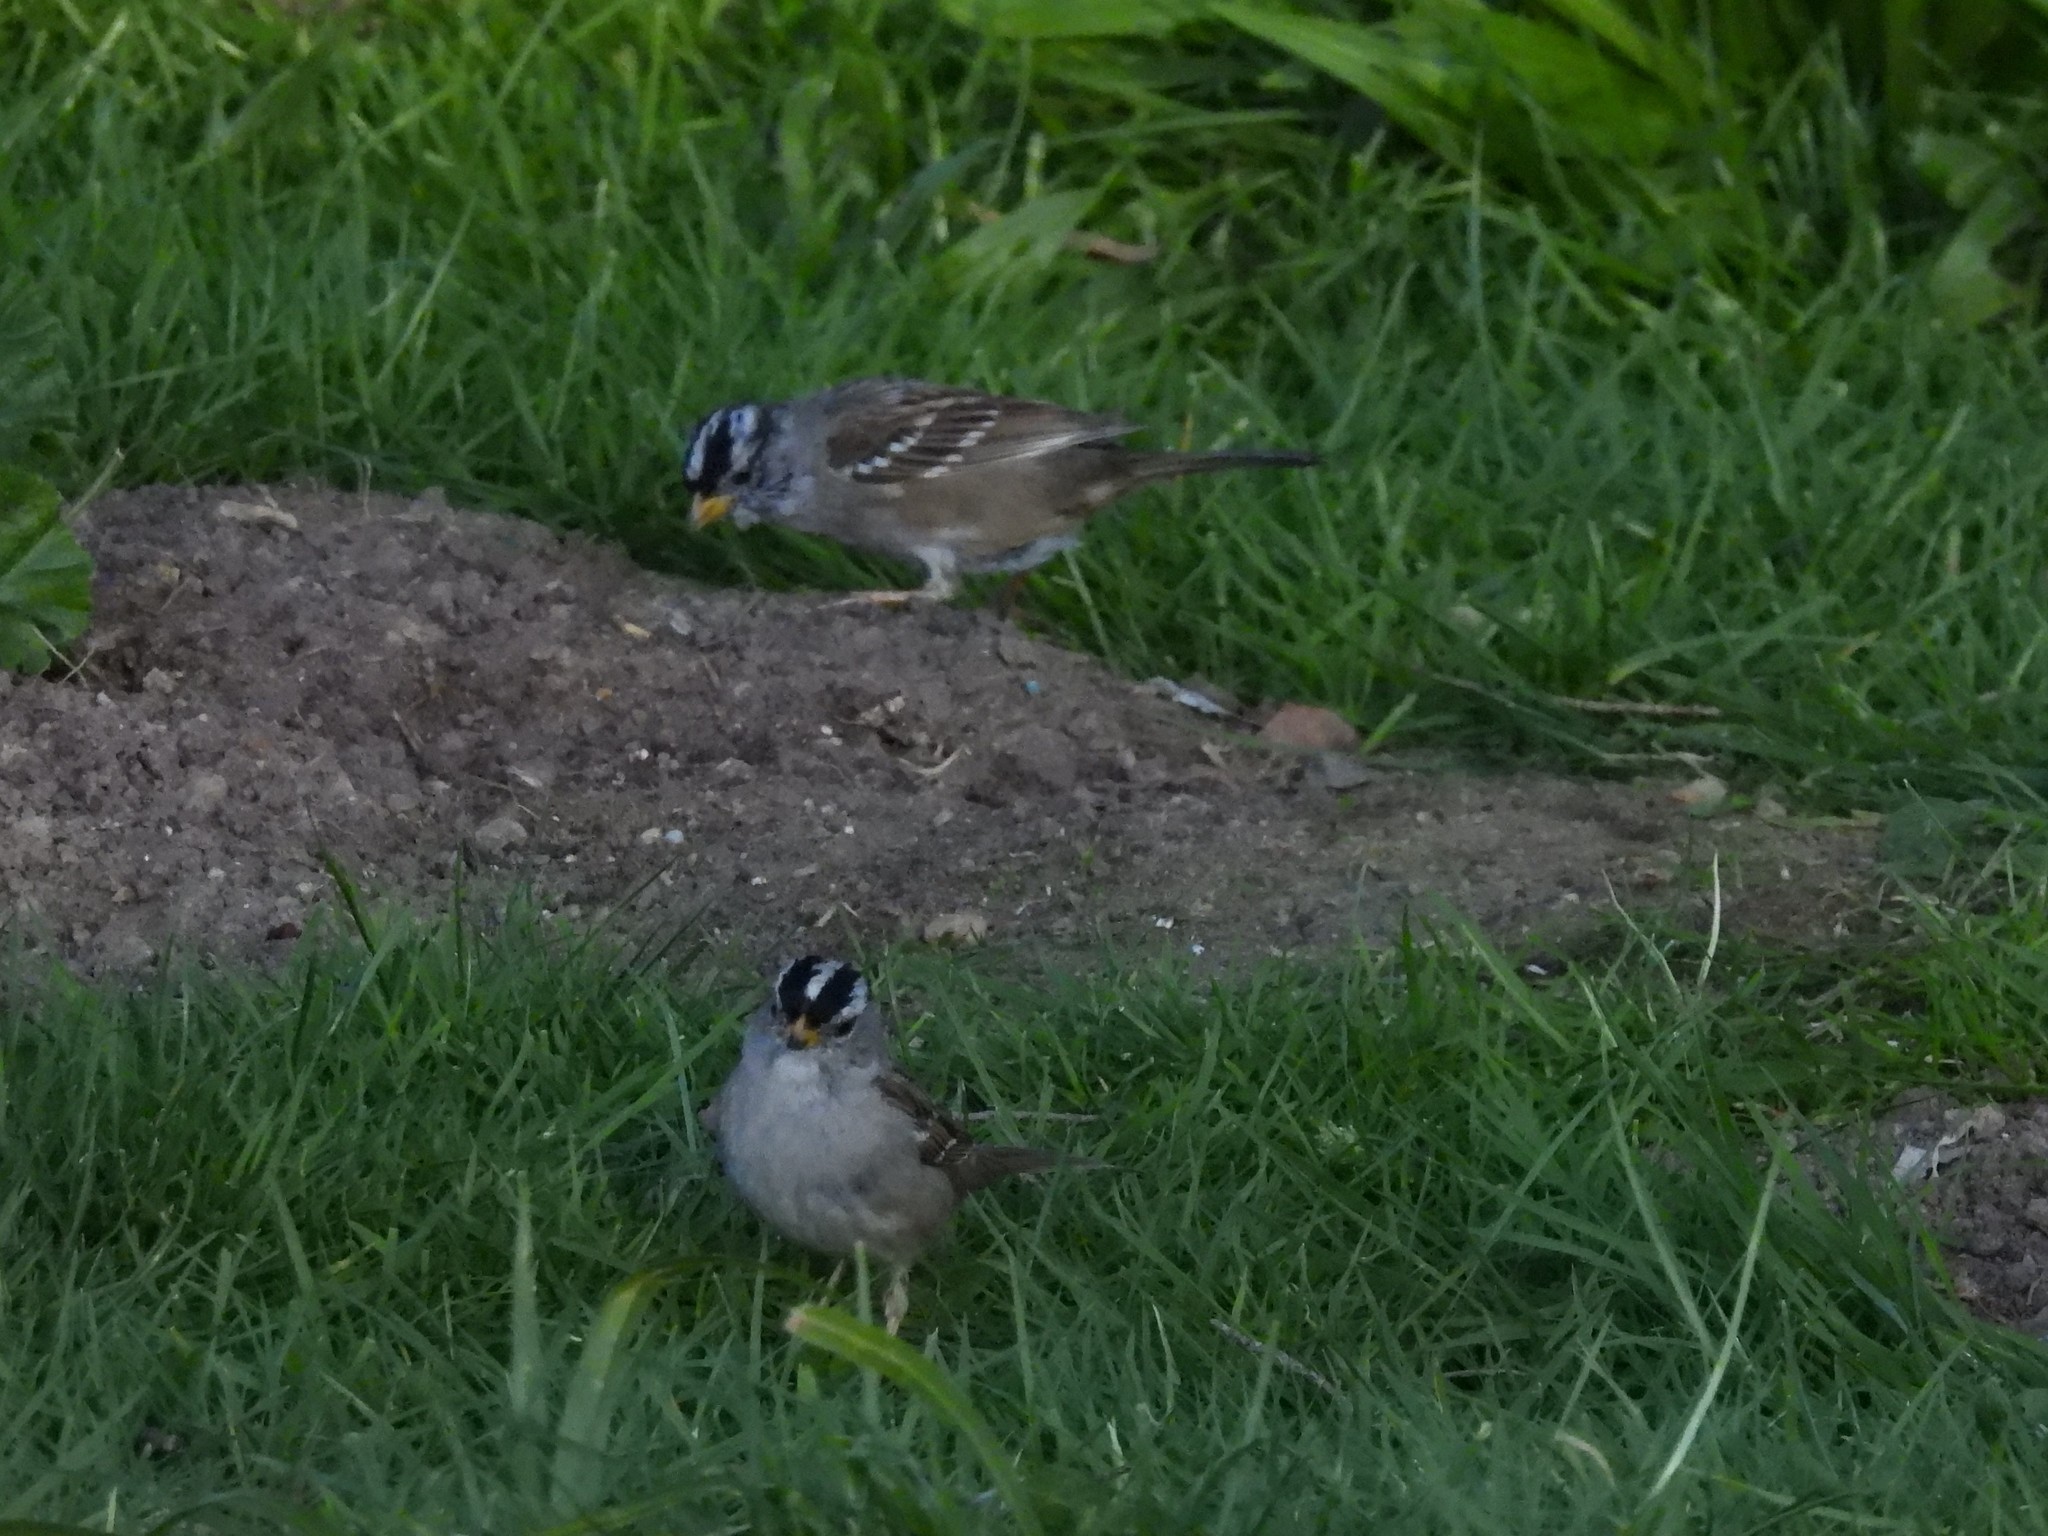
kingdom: Animalia
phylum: Chordata
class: Aves
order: Passeriformes
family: Passerellidae
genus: Zonotrichia
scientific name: Zonotrichia leucophrys
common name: White-crowned sparrow
